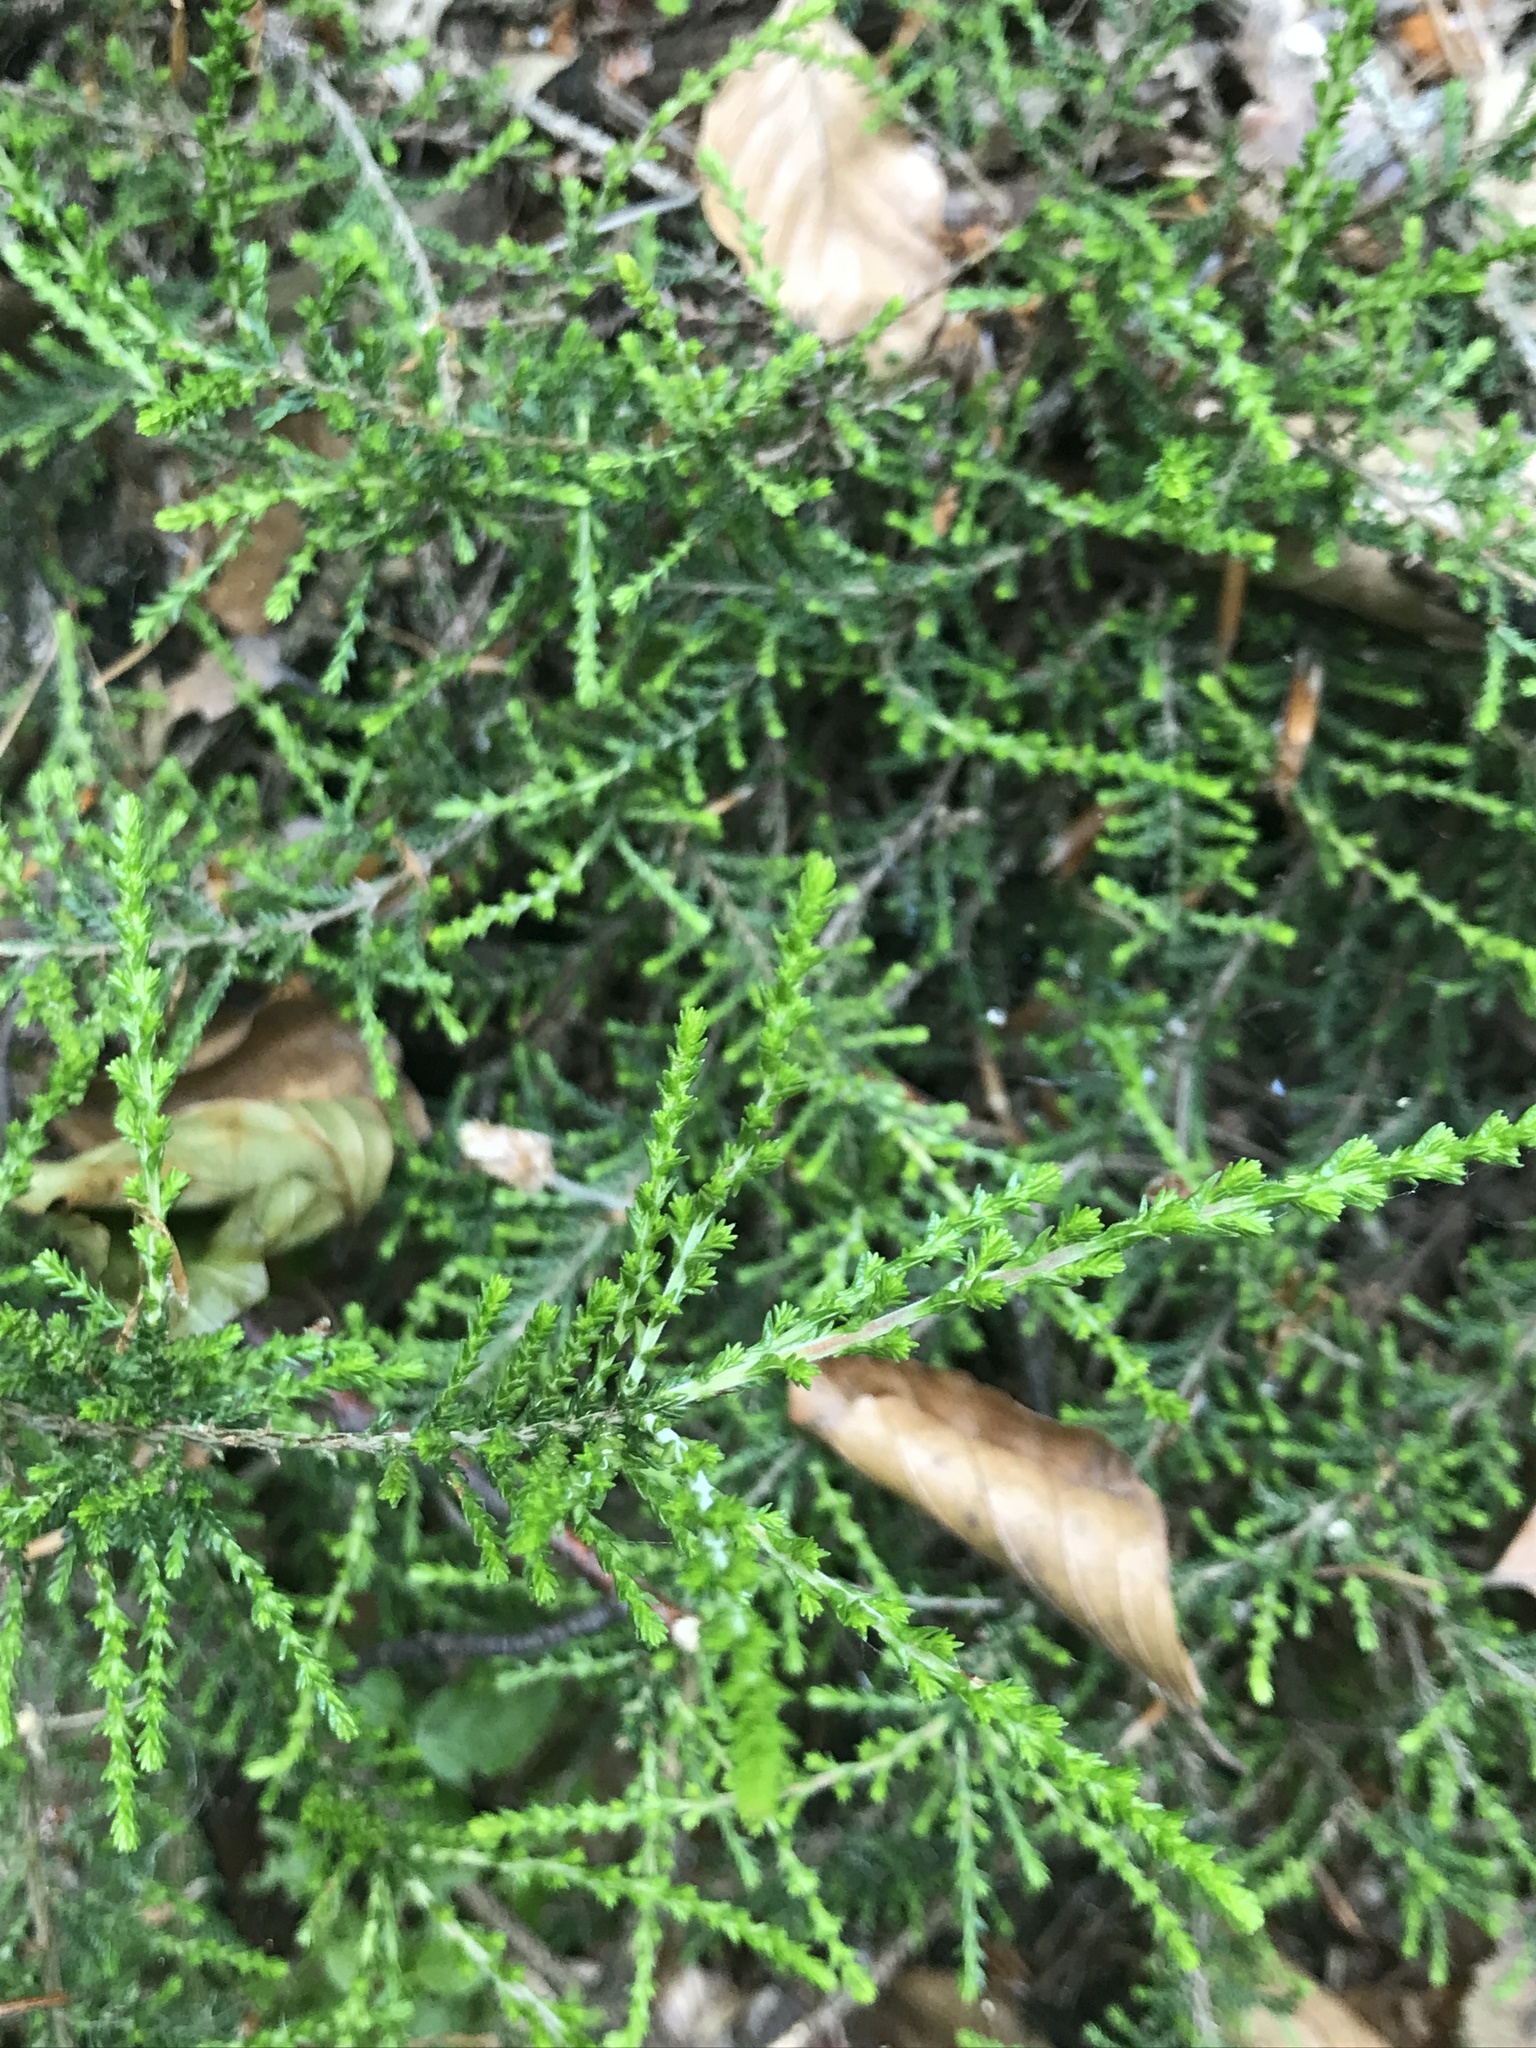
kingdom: Plantae
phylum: Tracheophyta
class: Magnoliopsida
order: Ericales
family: Ericaceae
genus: Calluna
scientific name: Calluna vulgaris
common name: Heather
